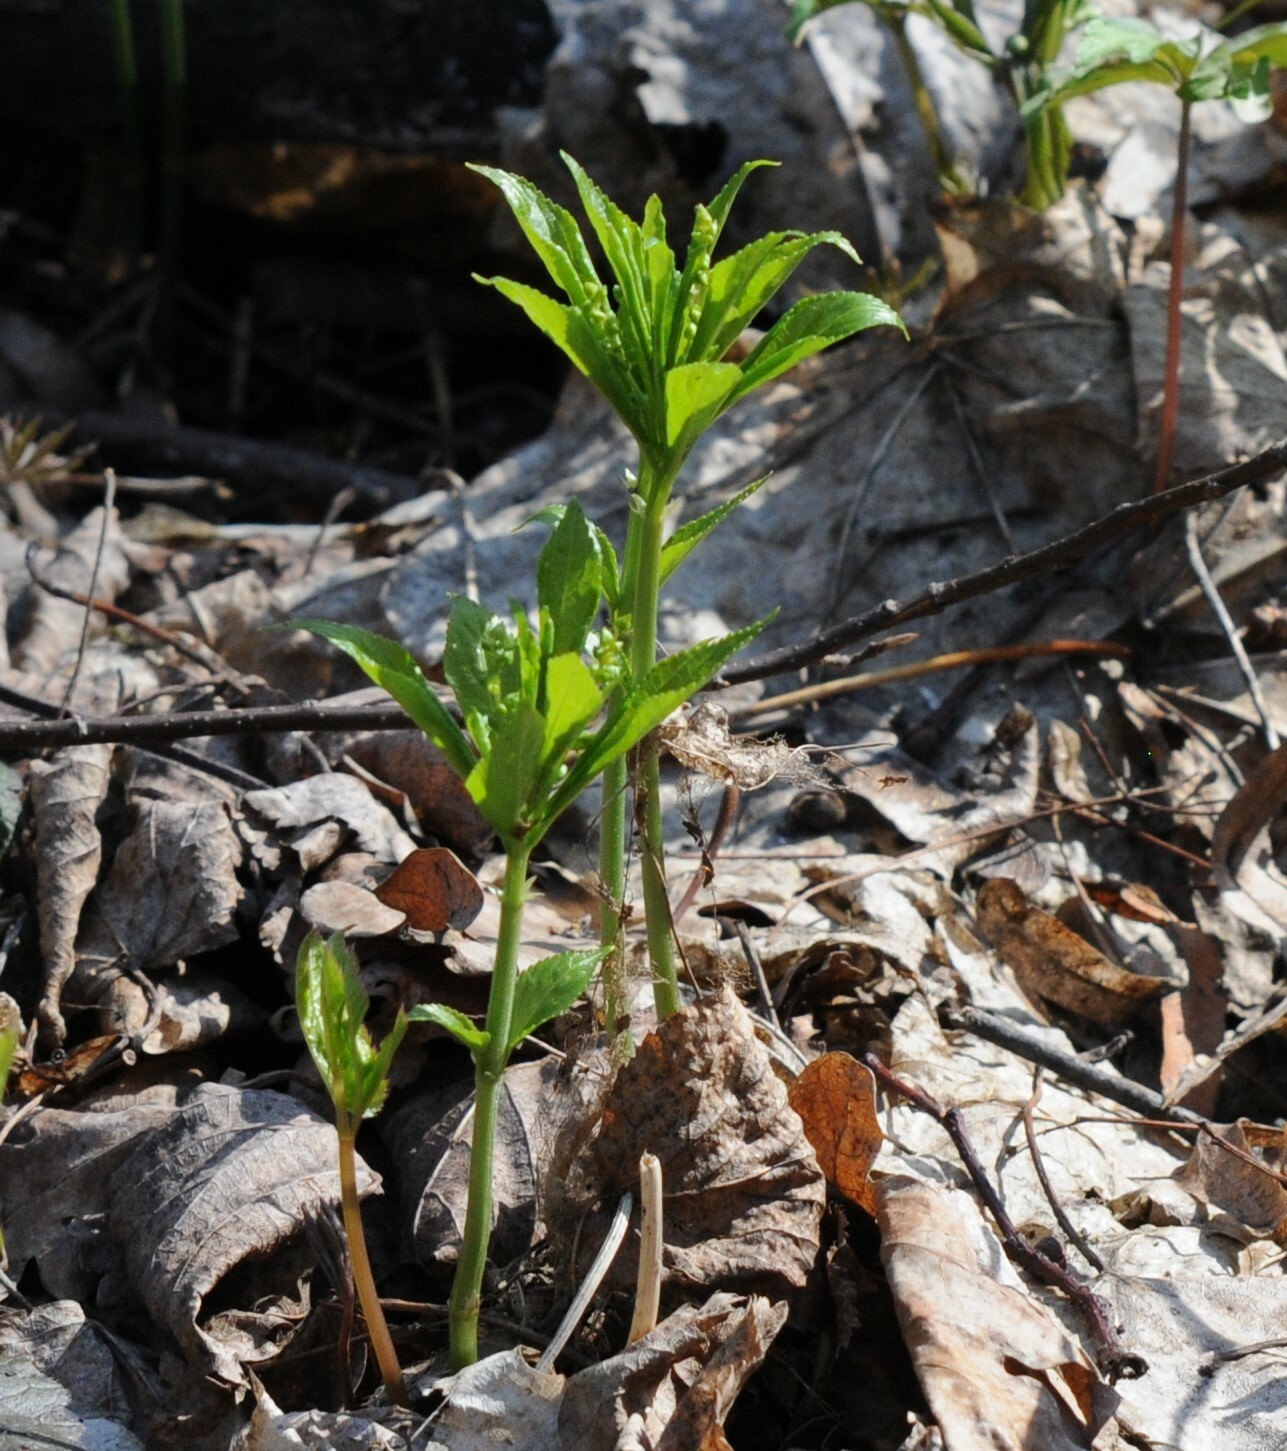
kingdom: Plantae
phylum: Tracheophyta
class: Magnoliopsida
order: Malpighiales
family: Euphorbiaceae
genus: Mercurialis
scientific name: Mercurialis perennis
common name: Dog mercury
